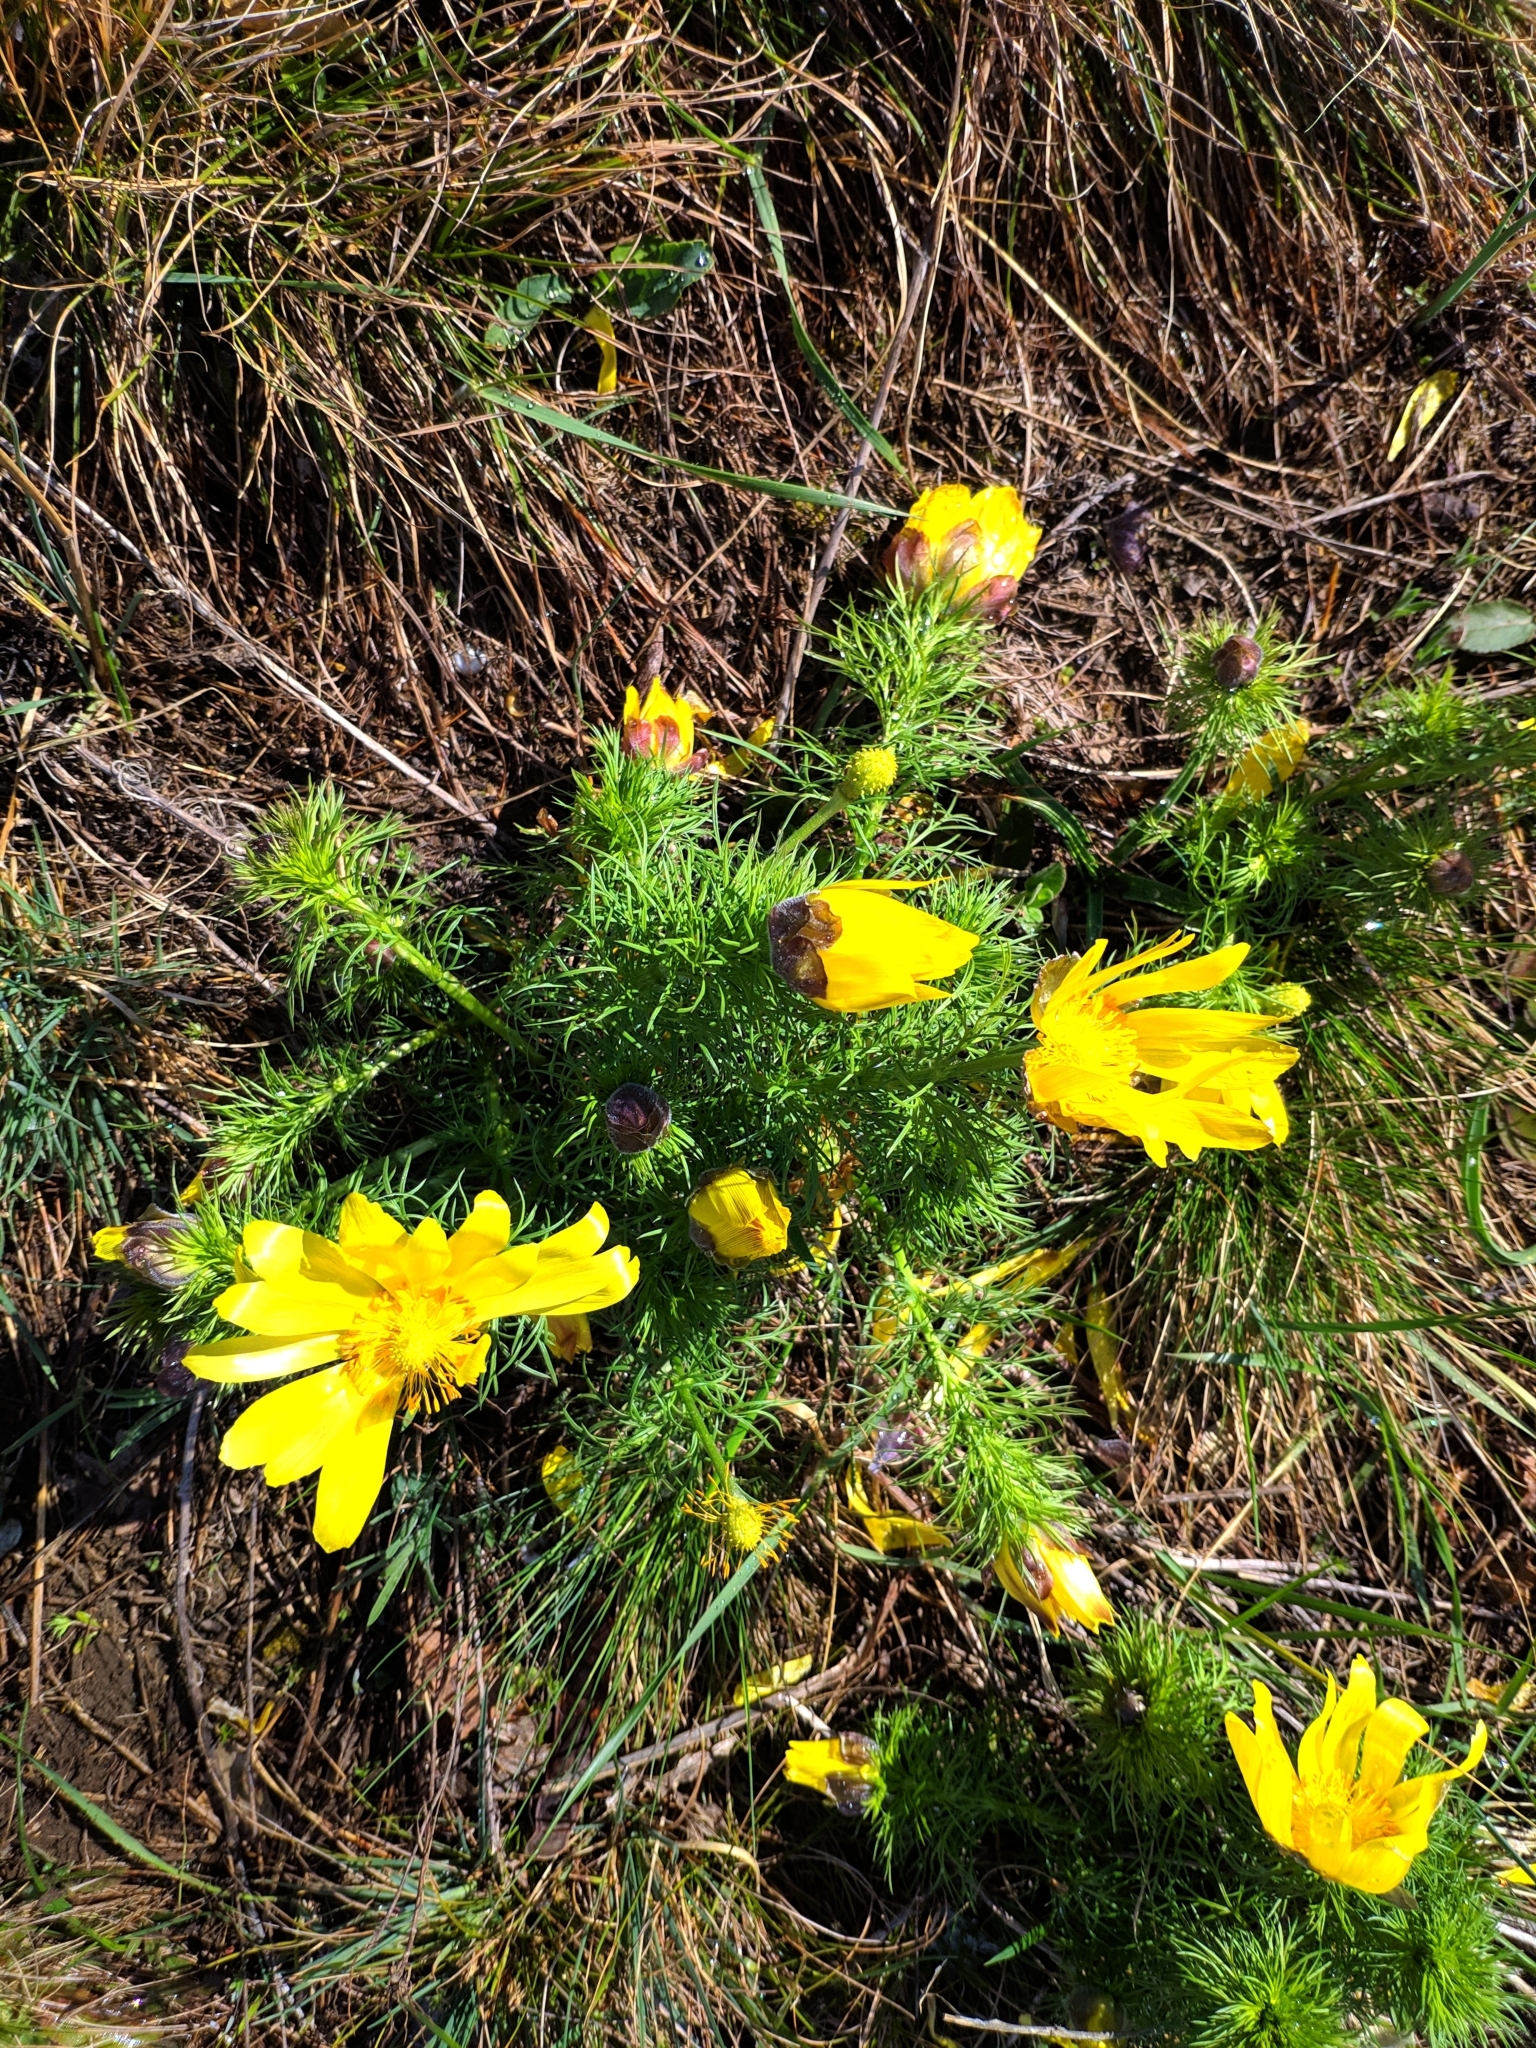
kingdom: Plantae
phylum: Tracheophyta
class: Magnoliopsida
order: Ranunculales
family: Ranunculaceae
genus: Adonis
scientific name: Adonis vernalis
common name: Yellow pheasants-eye
